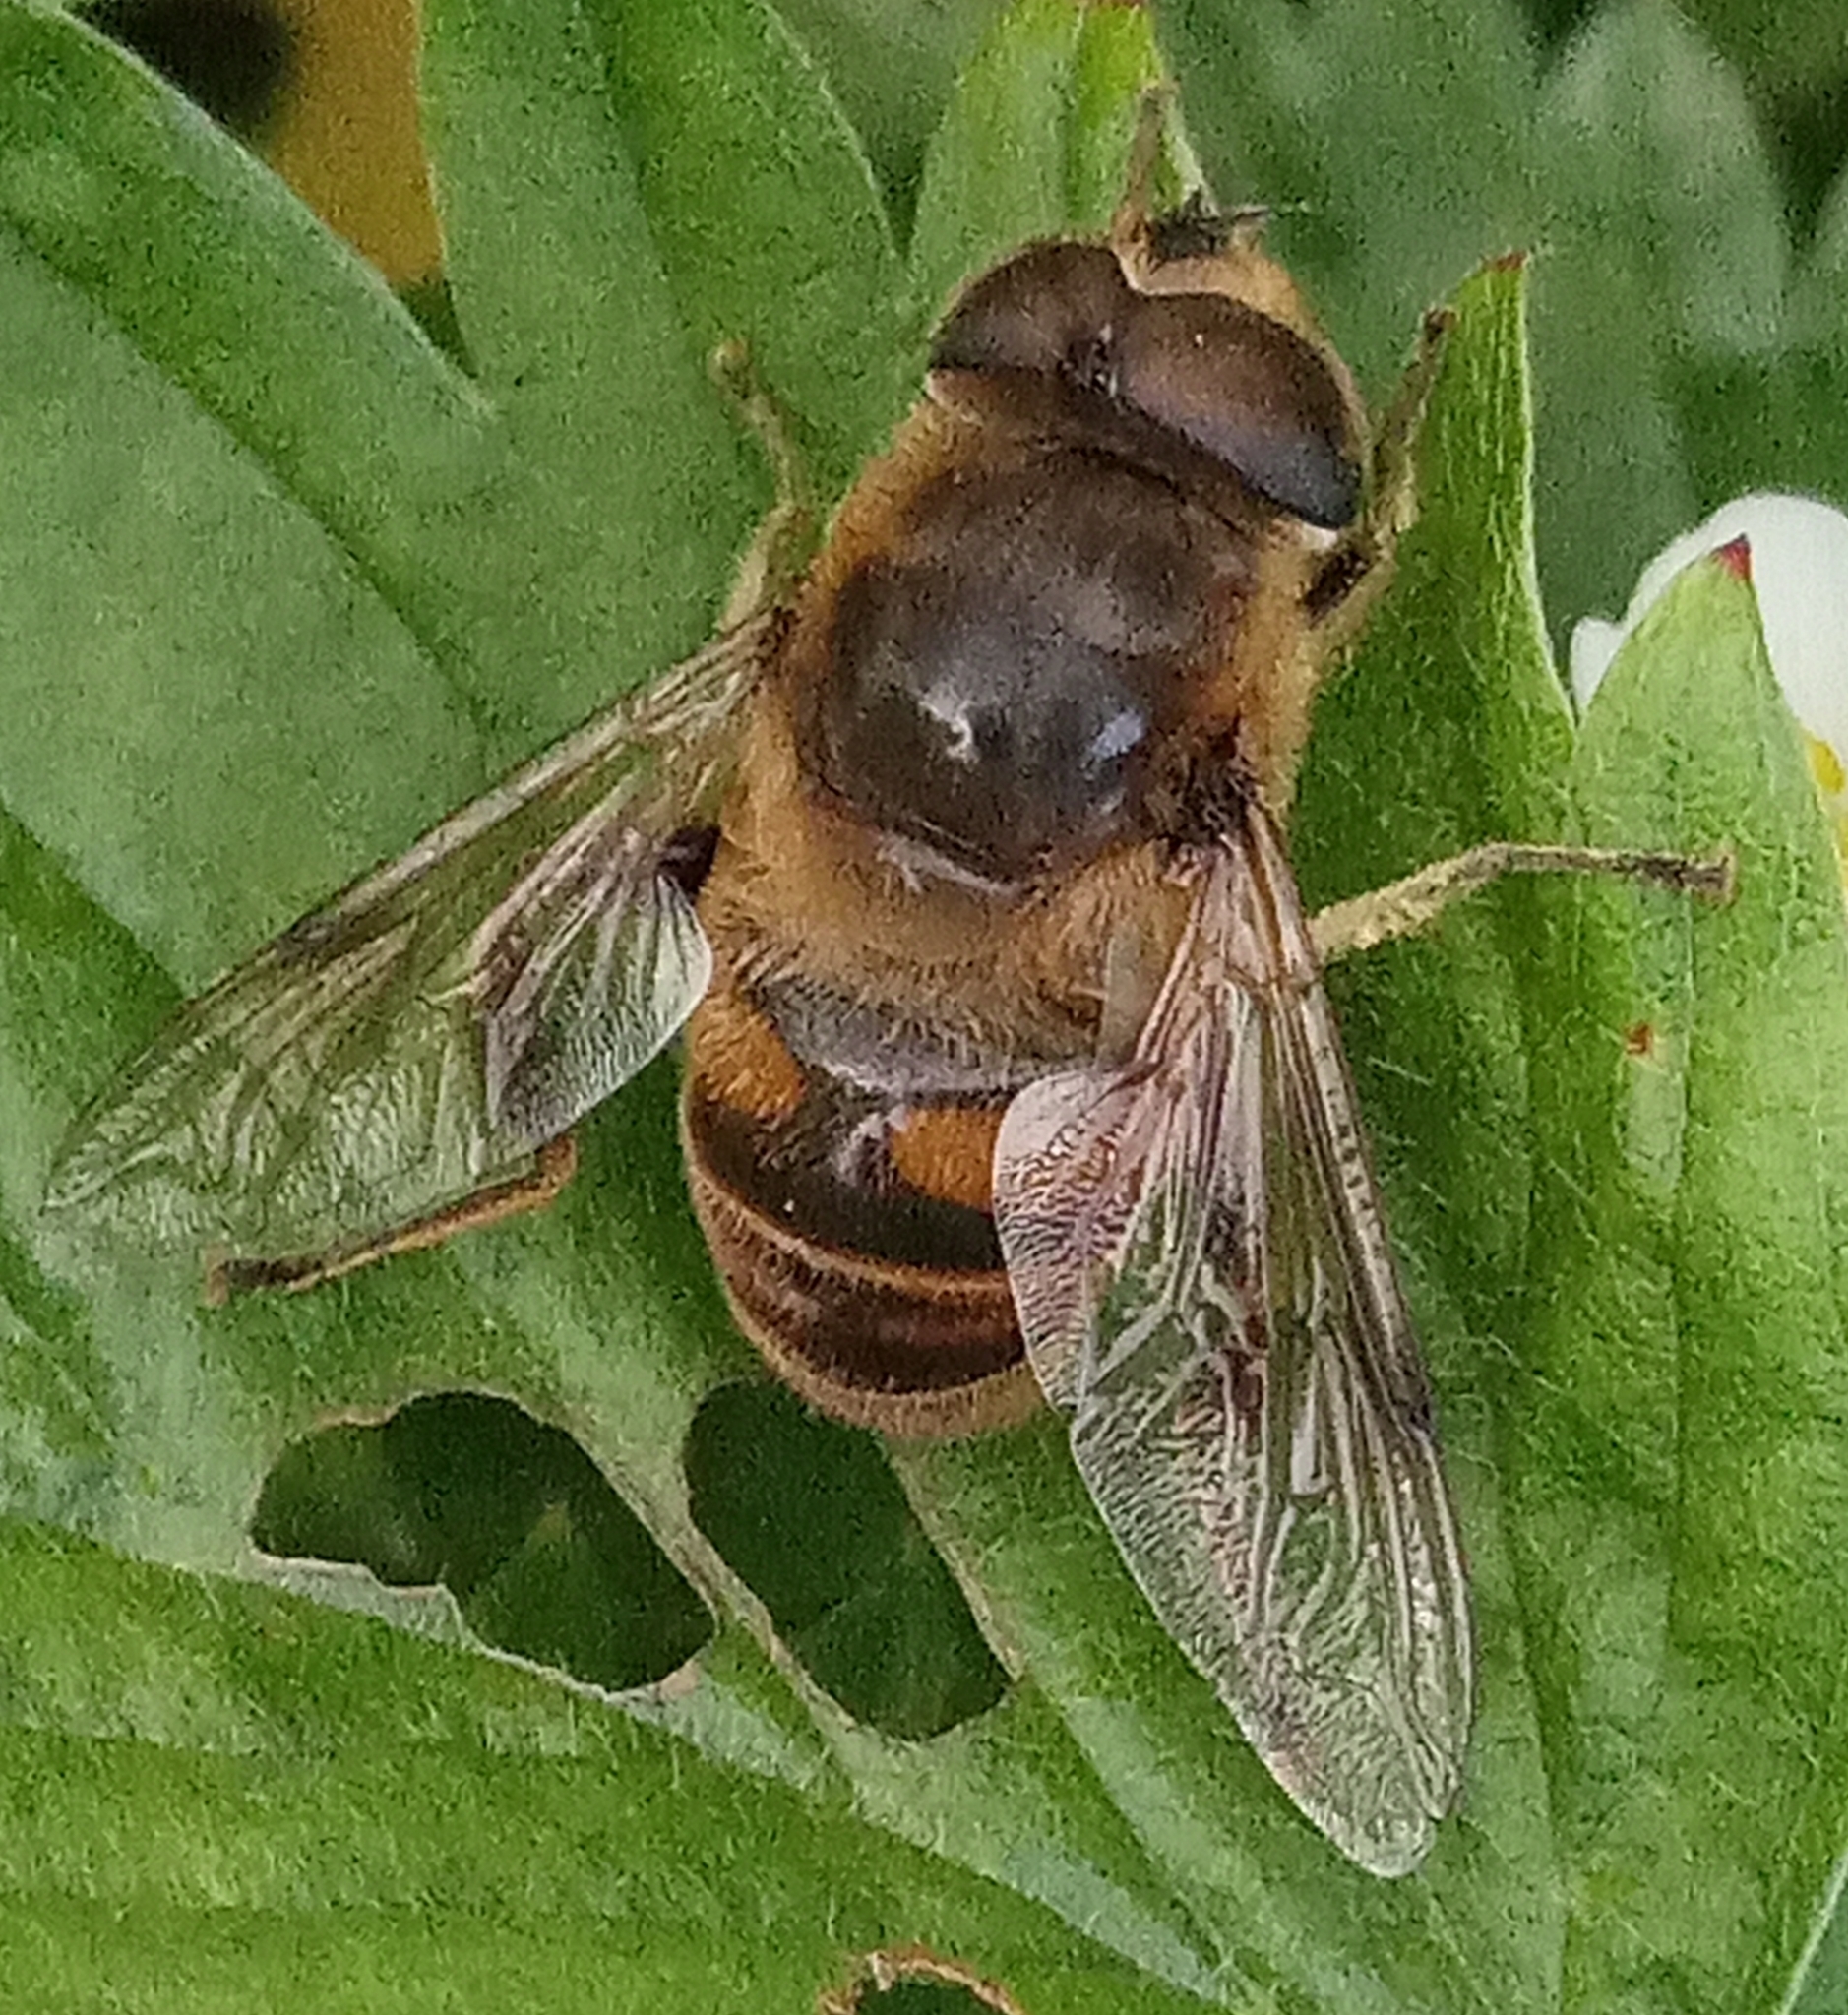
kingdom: Animalia
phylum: Arthropoda
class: Insecta
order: Diptera
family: Syrphidae
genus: Eristalis
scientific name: Eristalis tenax
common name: Drone fly
